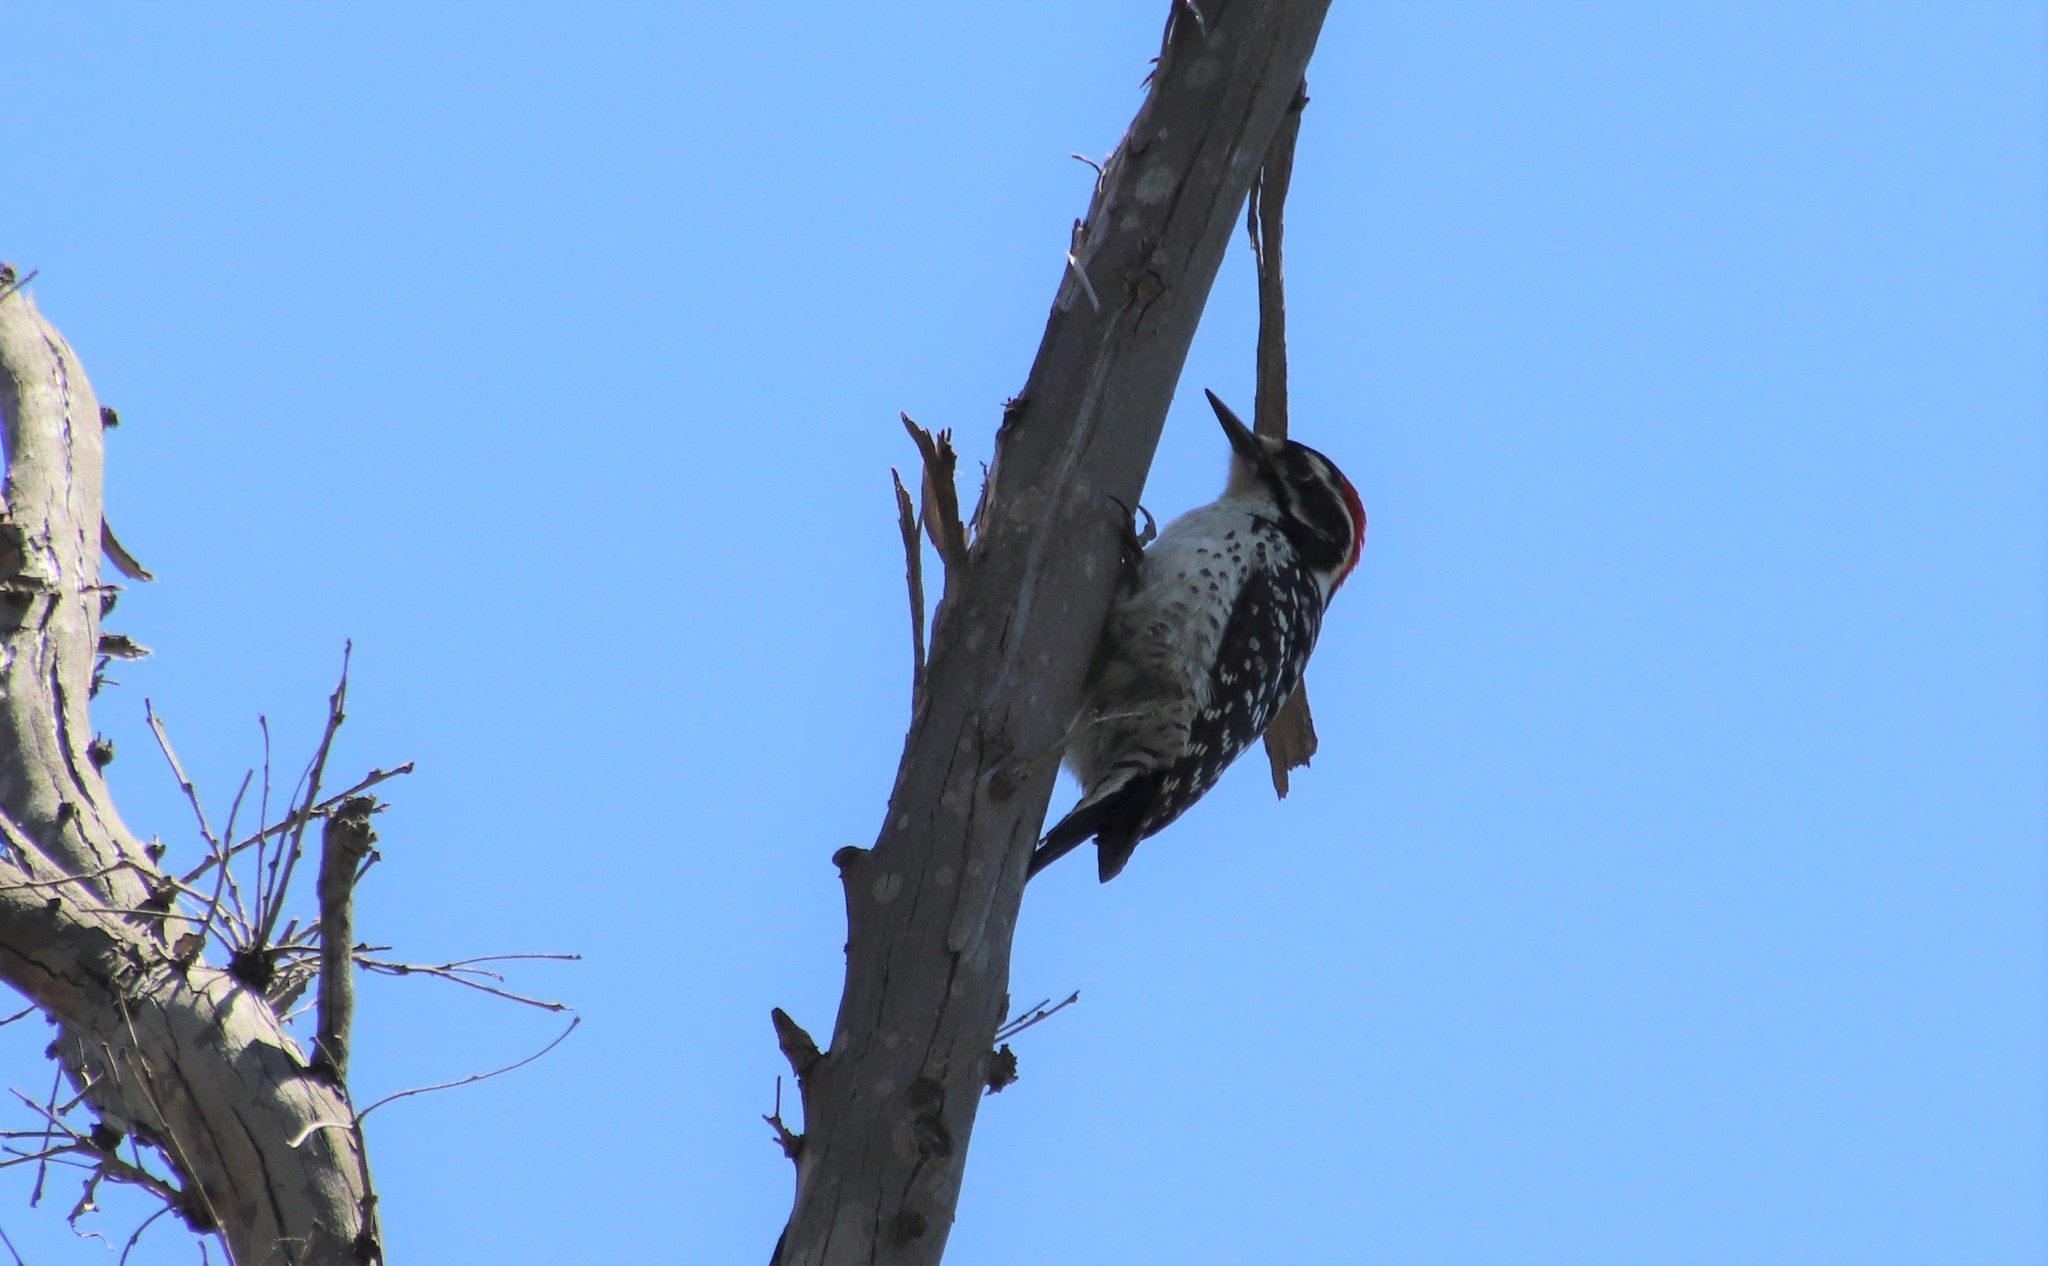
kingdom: Animalia
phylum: Chordata
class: Aves
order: Piciformes
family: Picidae
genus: Dryobates
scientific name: Dryobates nuttallii
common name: Nuttall's woodpecker
